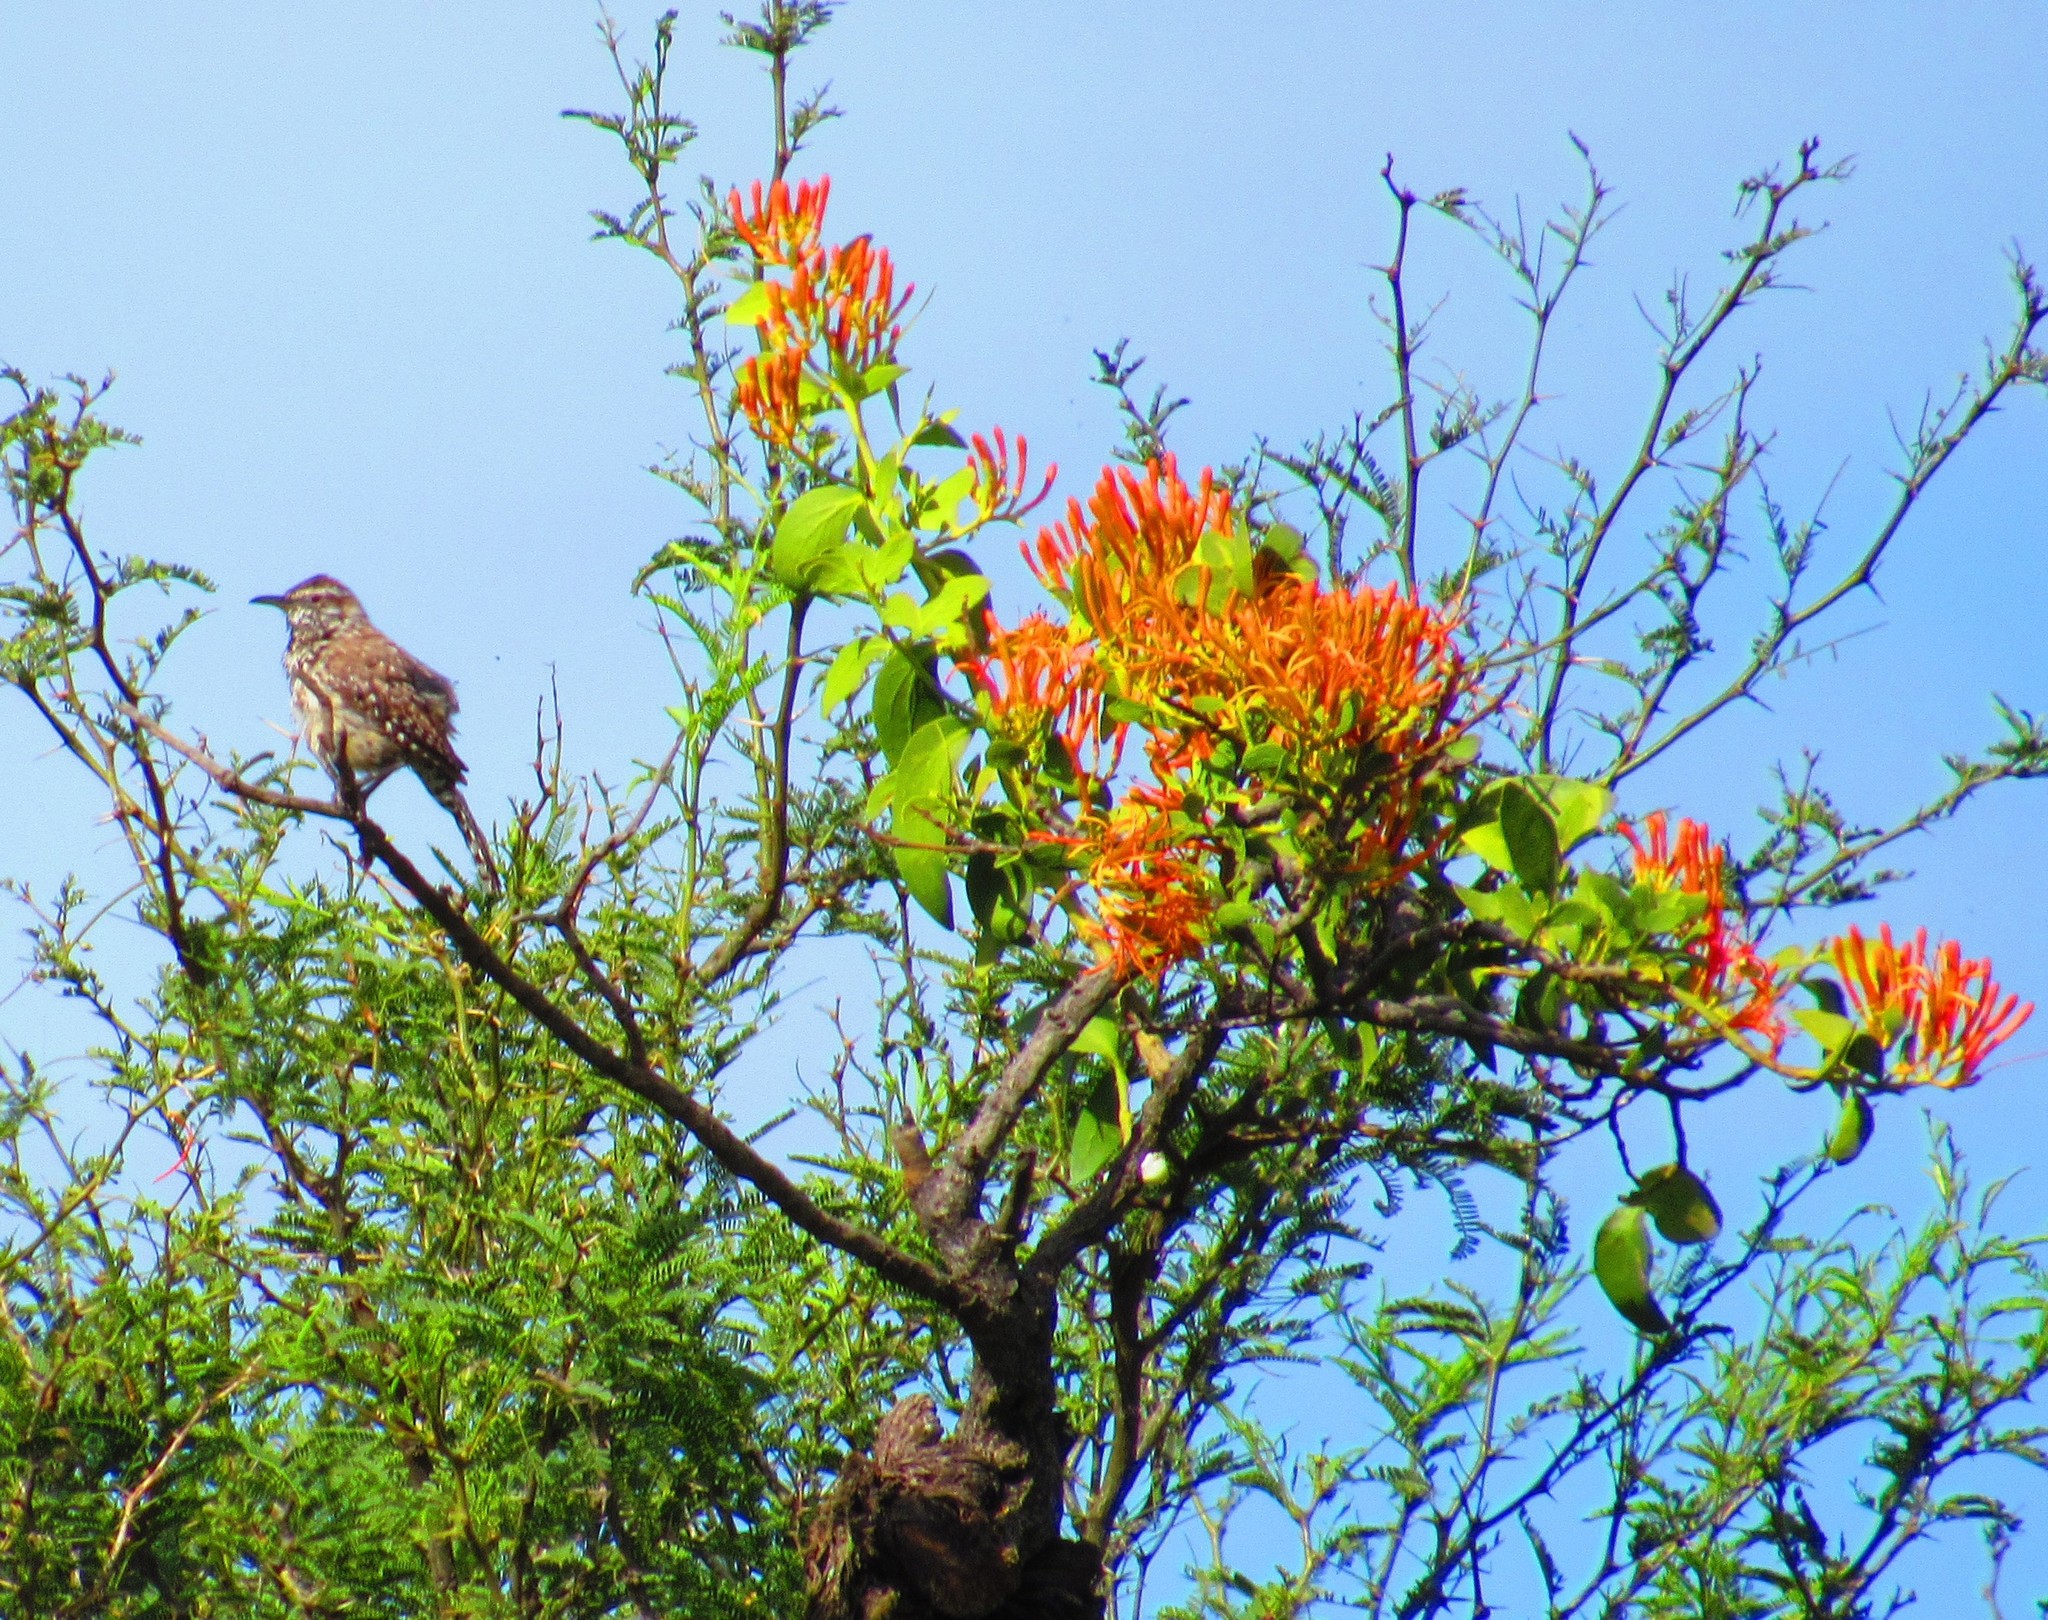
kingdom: Plantae
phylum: Tracheophyta
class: Magnoliopsida
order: Santalales
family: Loranthaceae
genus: Psittacanthus
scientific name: Psittacanthus calyculatus
